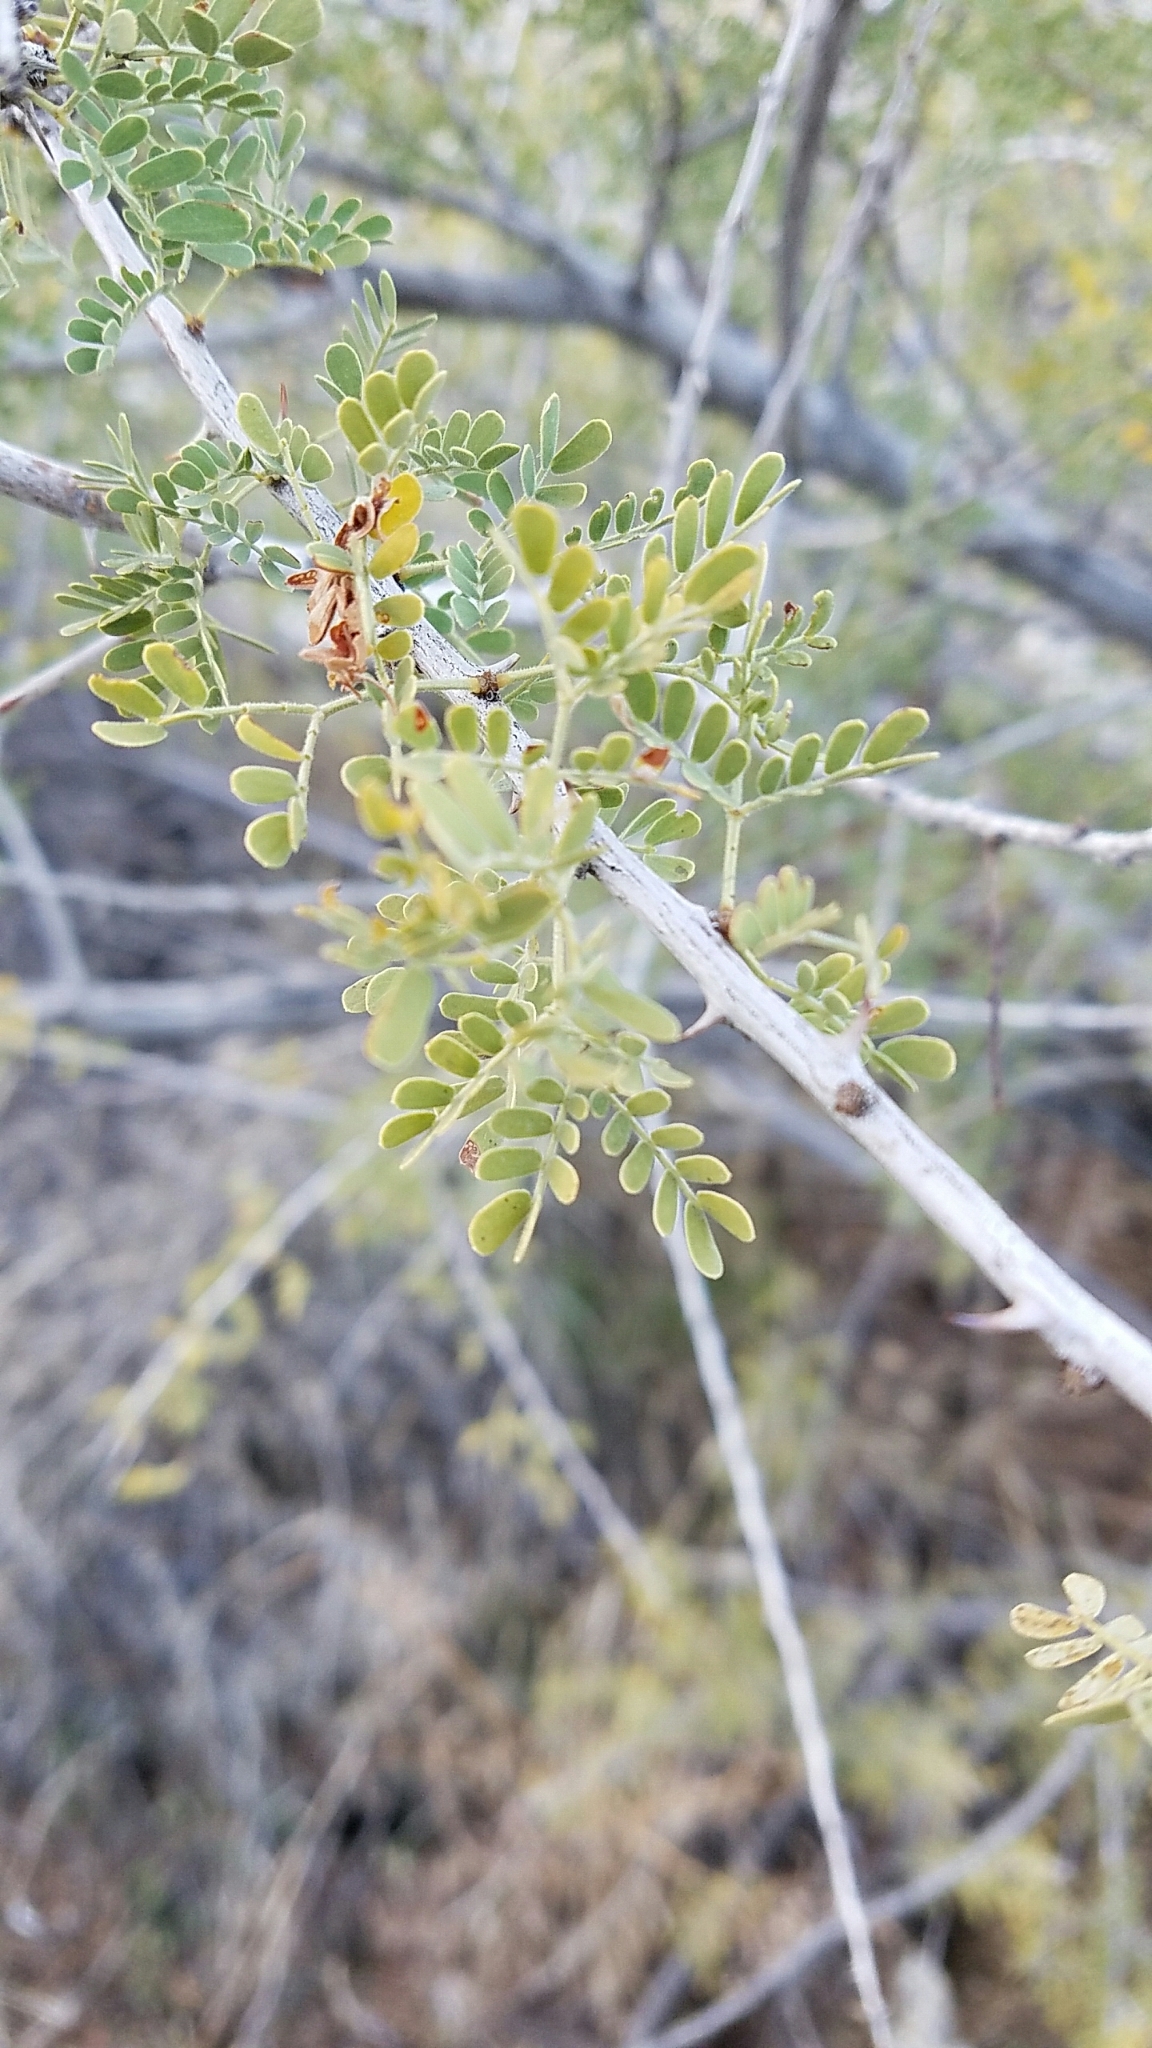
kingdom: Plantae
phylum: Tracheophyta
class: Magnoliopsida
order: Fabales
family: Fabaceae
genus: Senegalia
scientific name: Senegalia greggii
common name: Texas-mimosa
